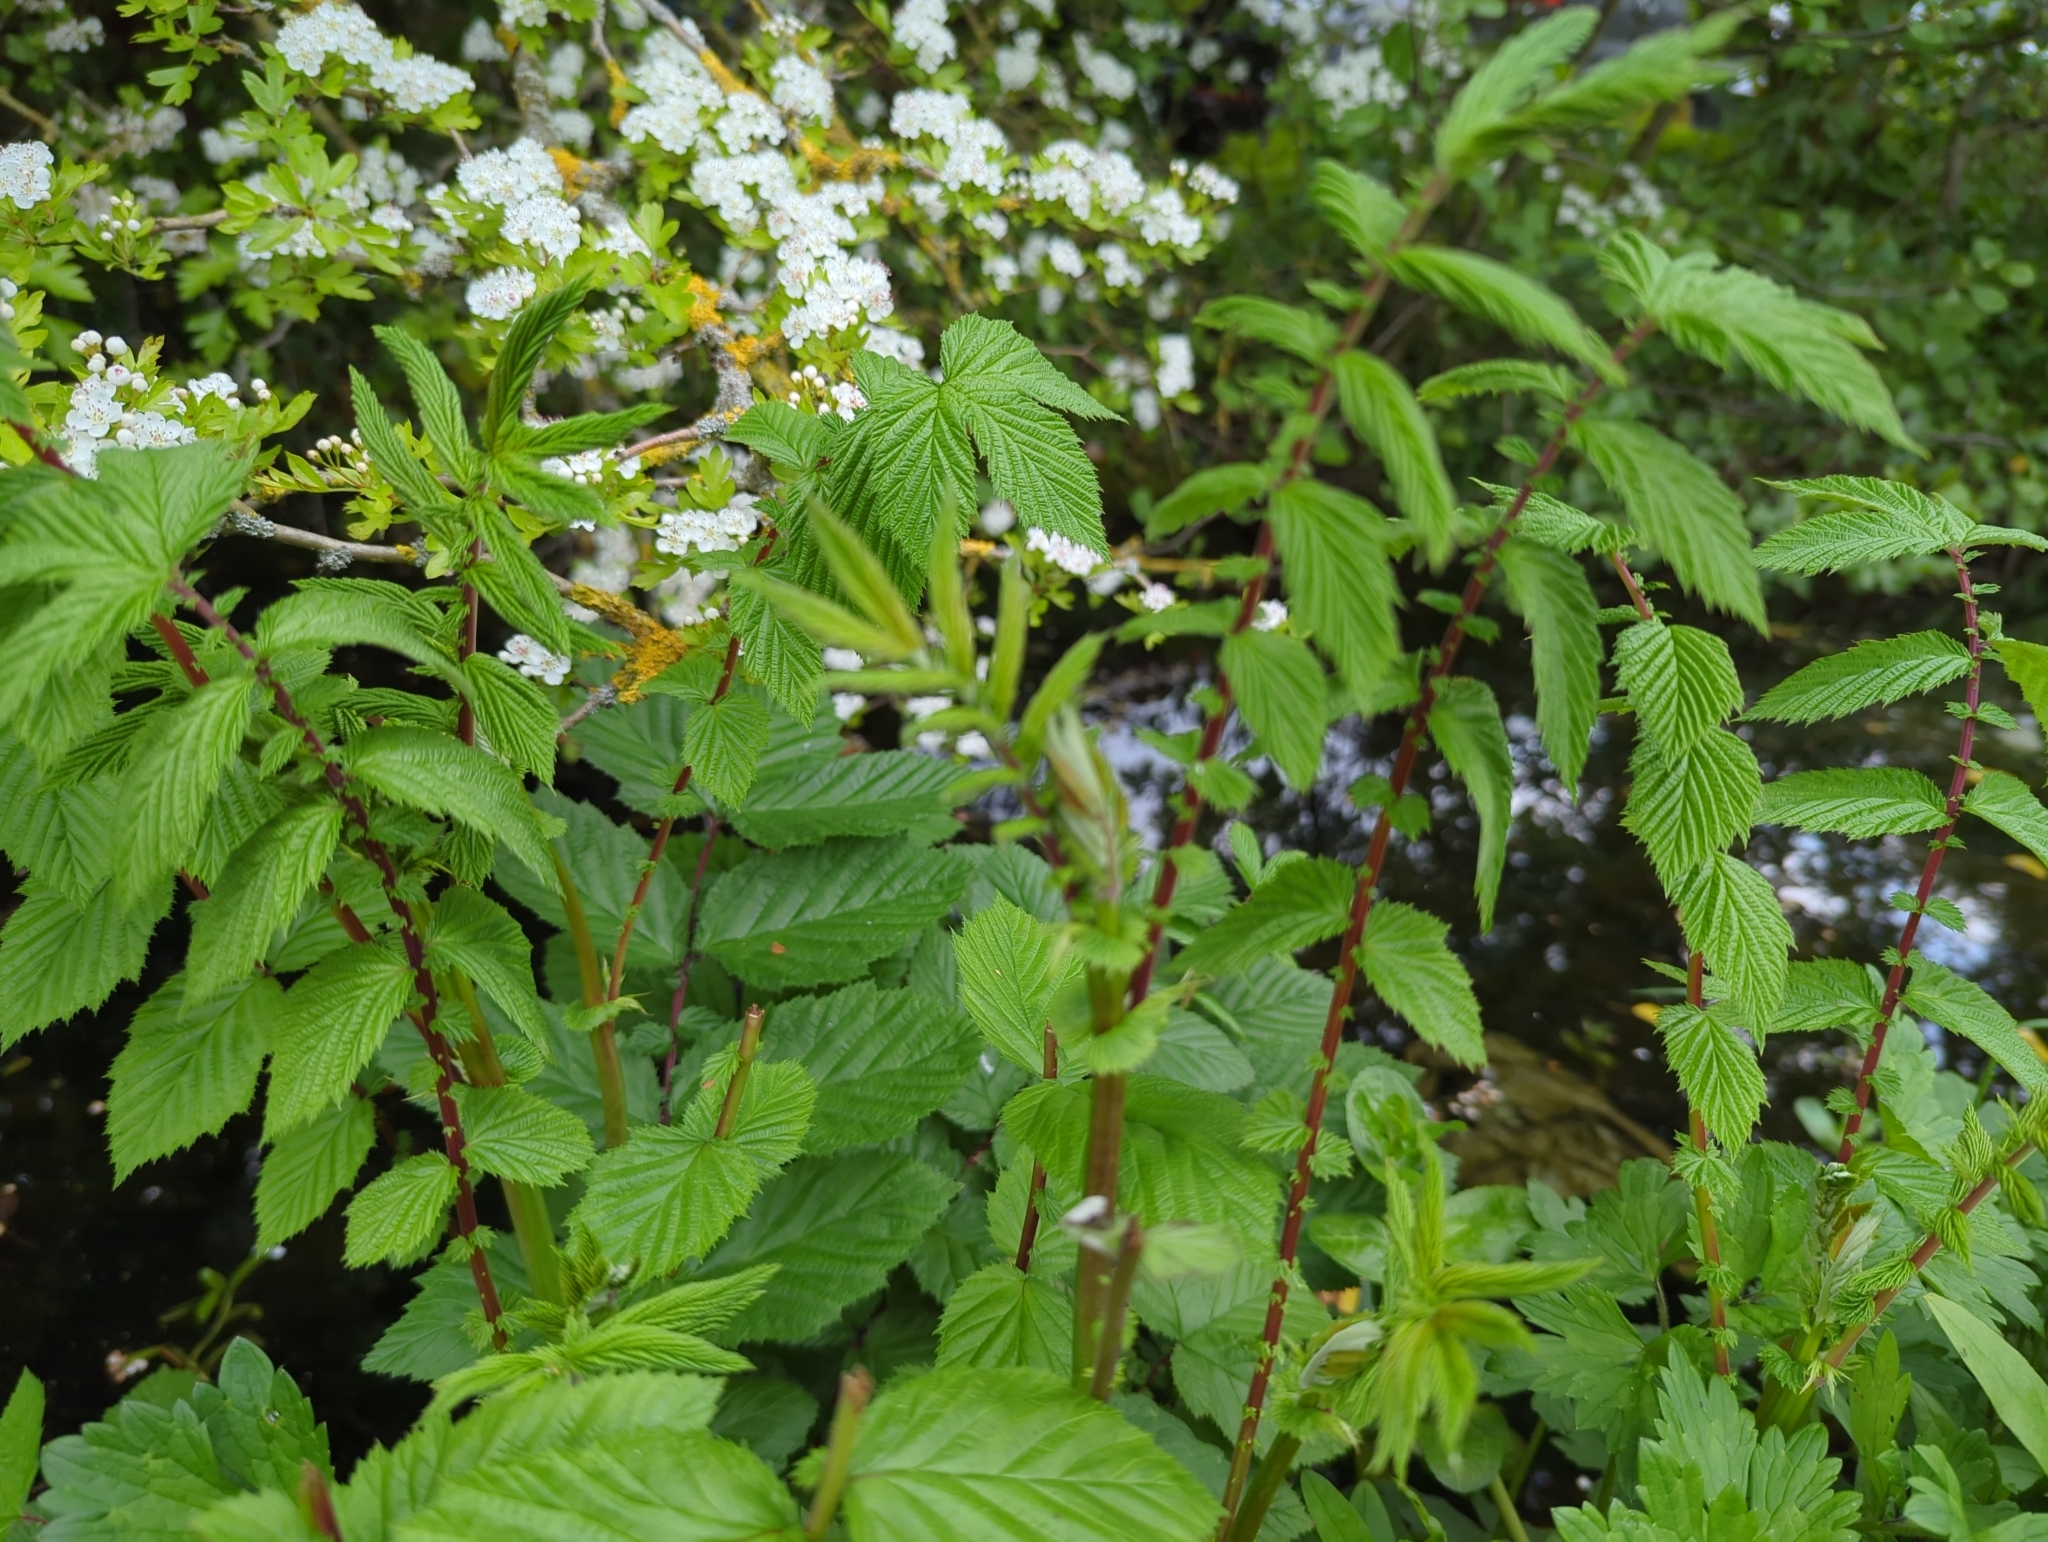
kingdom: Plantae
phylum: Tracheophyta
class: Magnoliopsida
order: Rosales
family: Rosaceae
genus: Filipendula
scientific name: Filipendula ulmaria
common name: Meadowsweet
